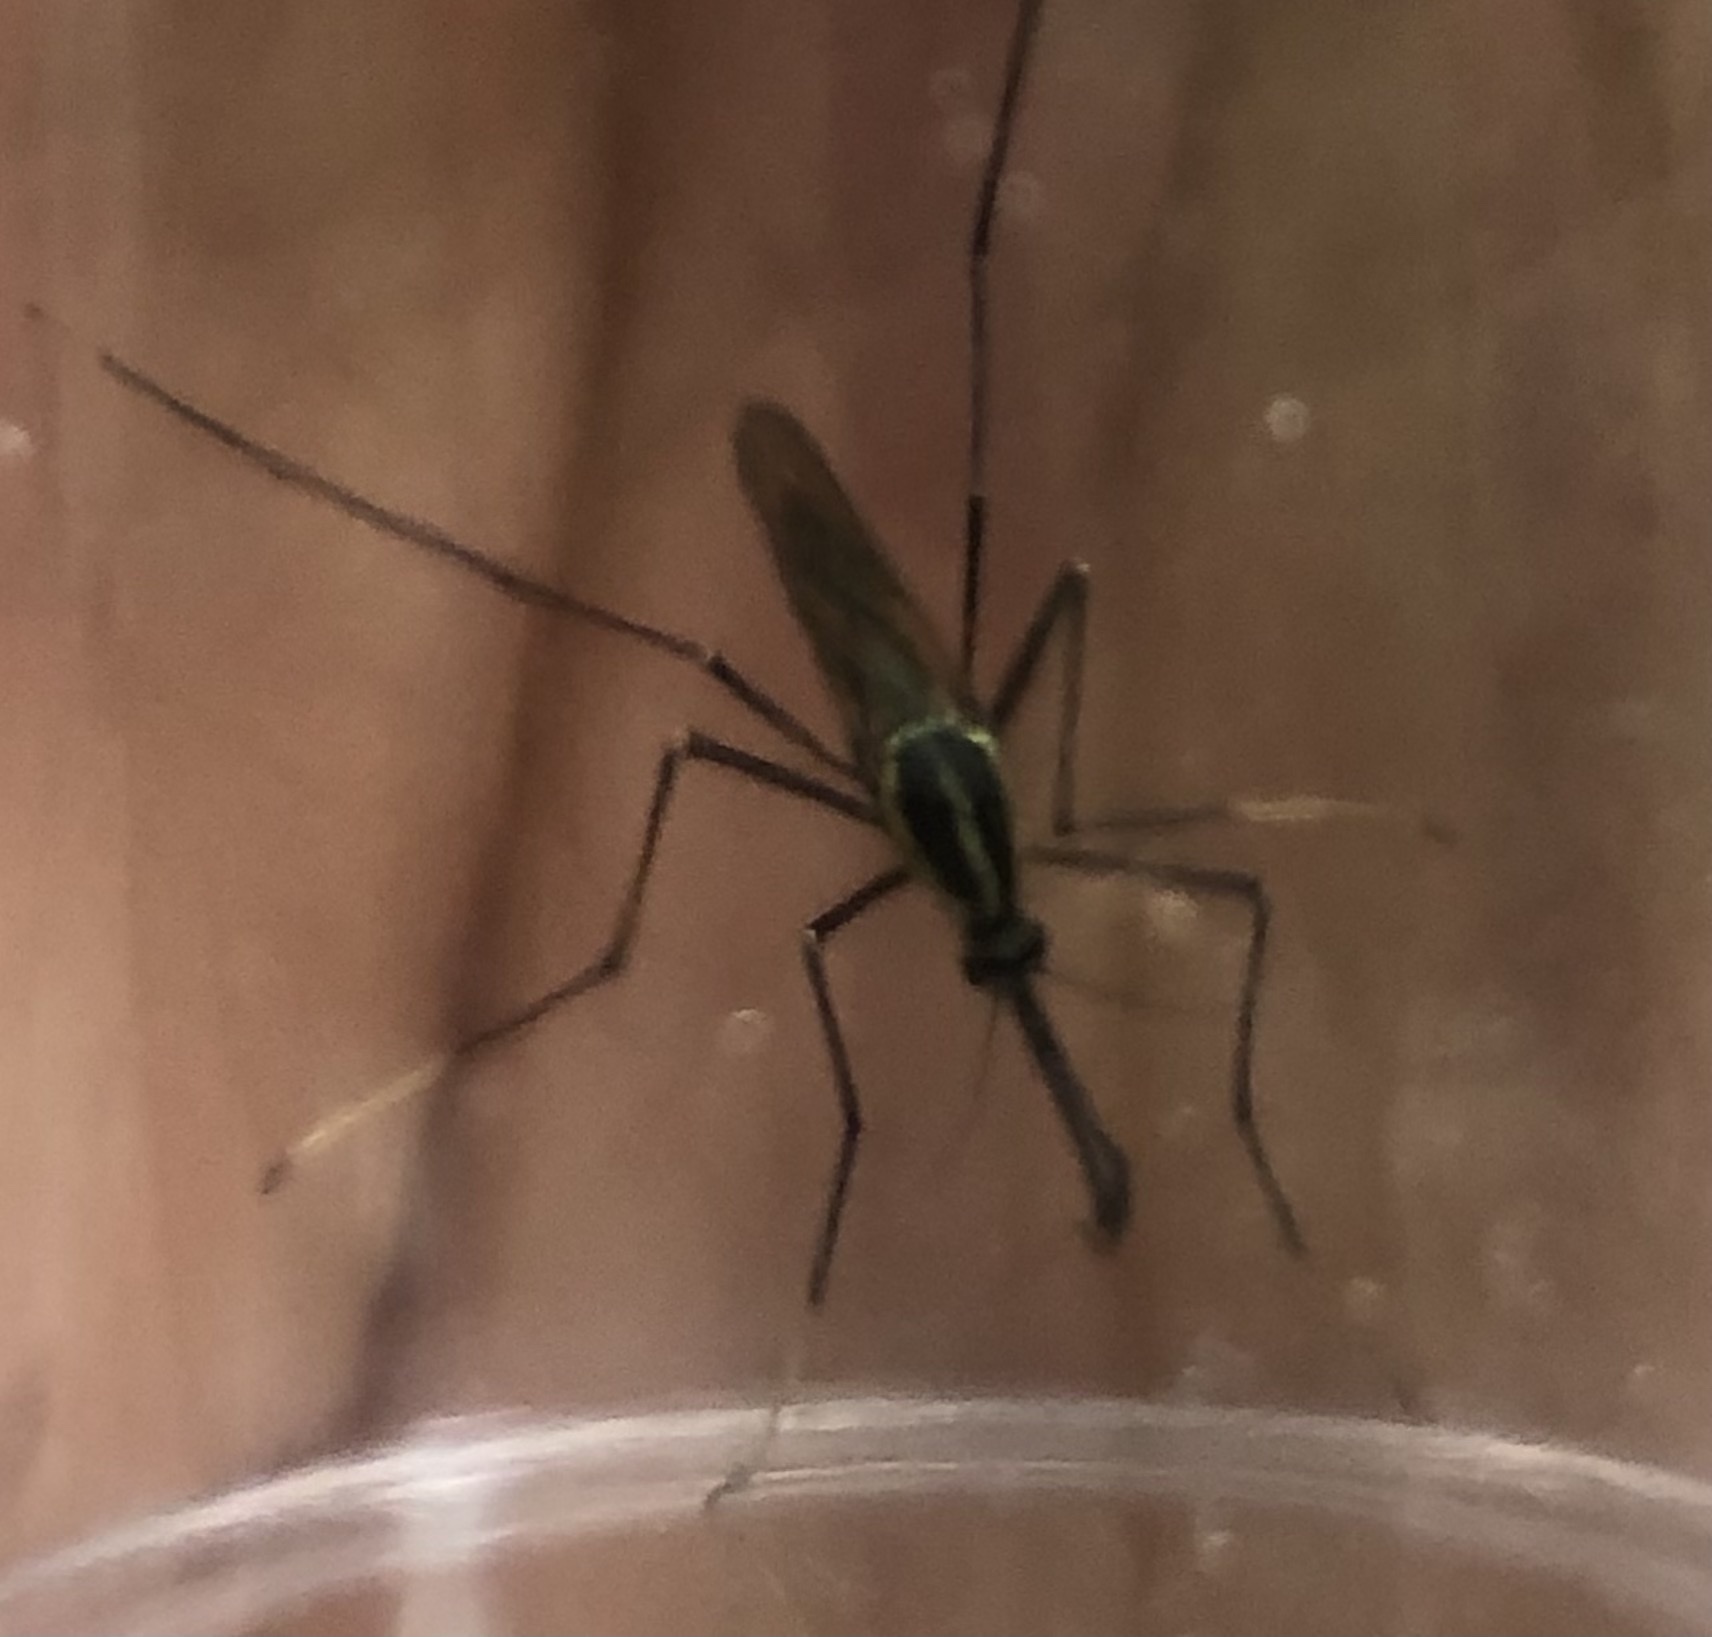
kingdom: Animalia
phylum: Arthropoda
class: Insecta
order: Diptera
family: Culicidae
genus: Toxorhynchites
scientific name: Toxorhynchites rutilus
